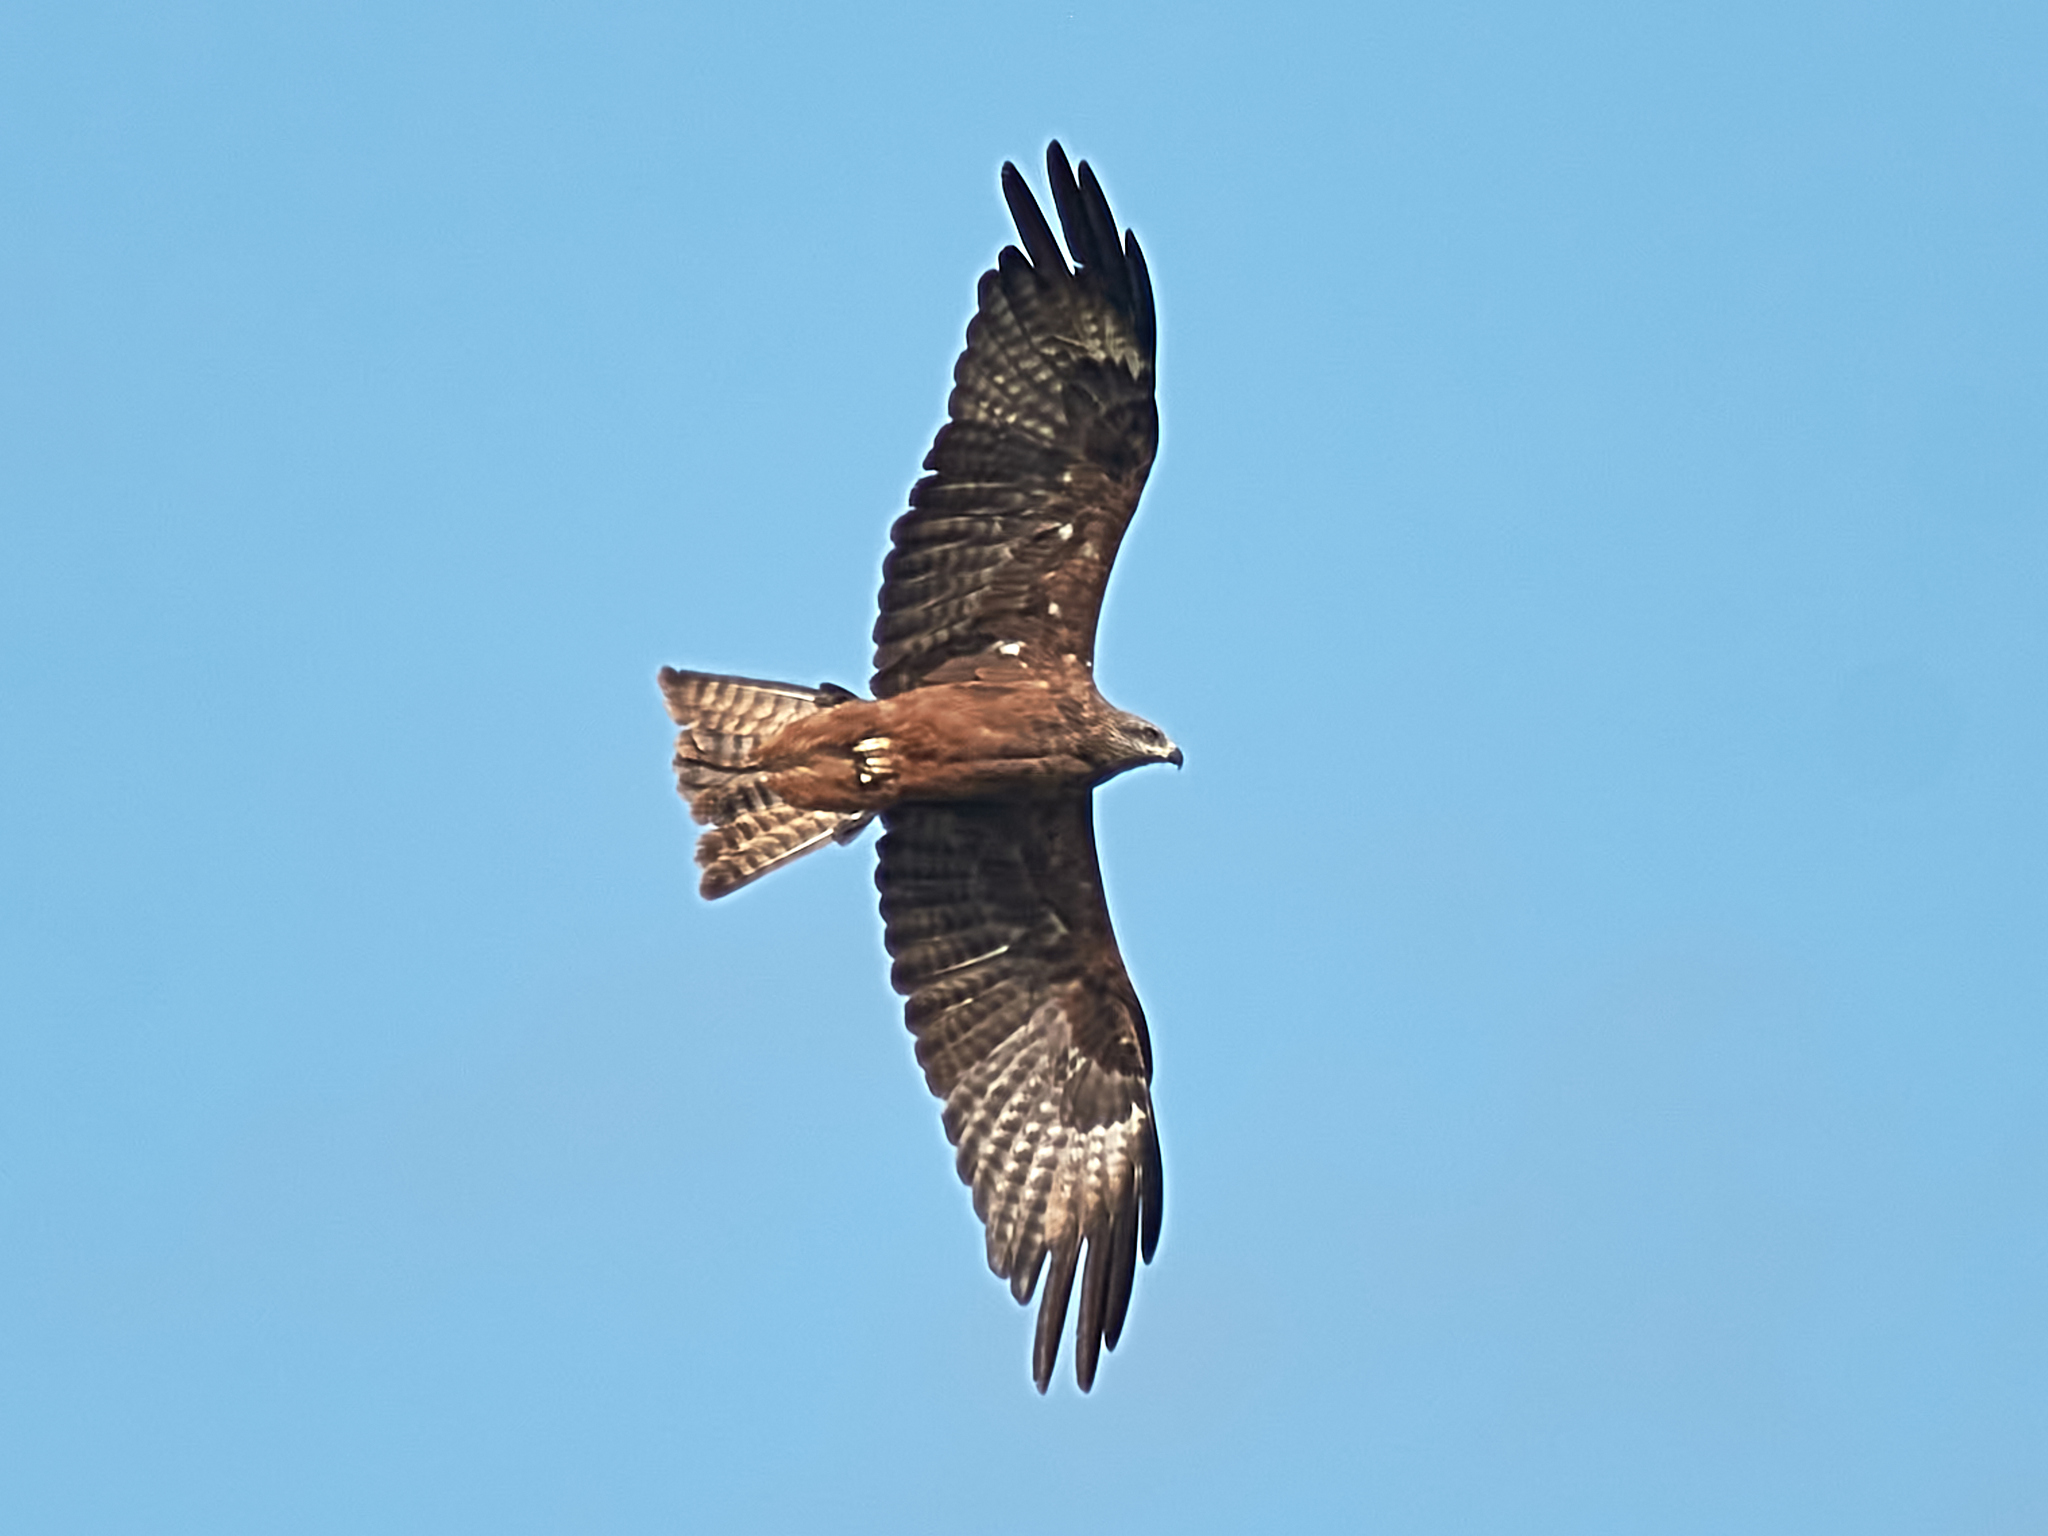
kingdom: Animalia
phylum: Chordata
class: Aves
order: Accipitriformes
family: Accipitridae
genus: Milvus
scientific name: Milvus migrans
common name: Black kite
